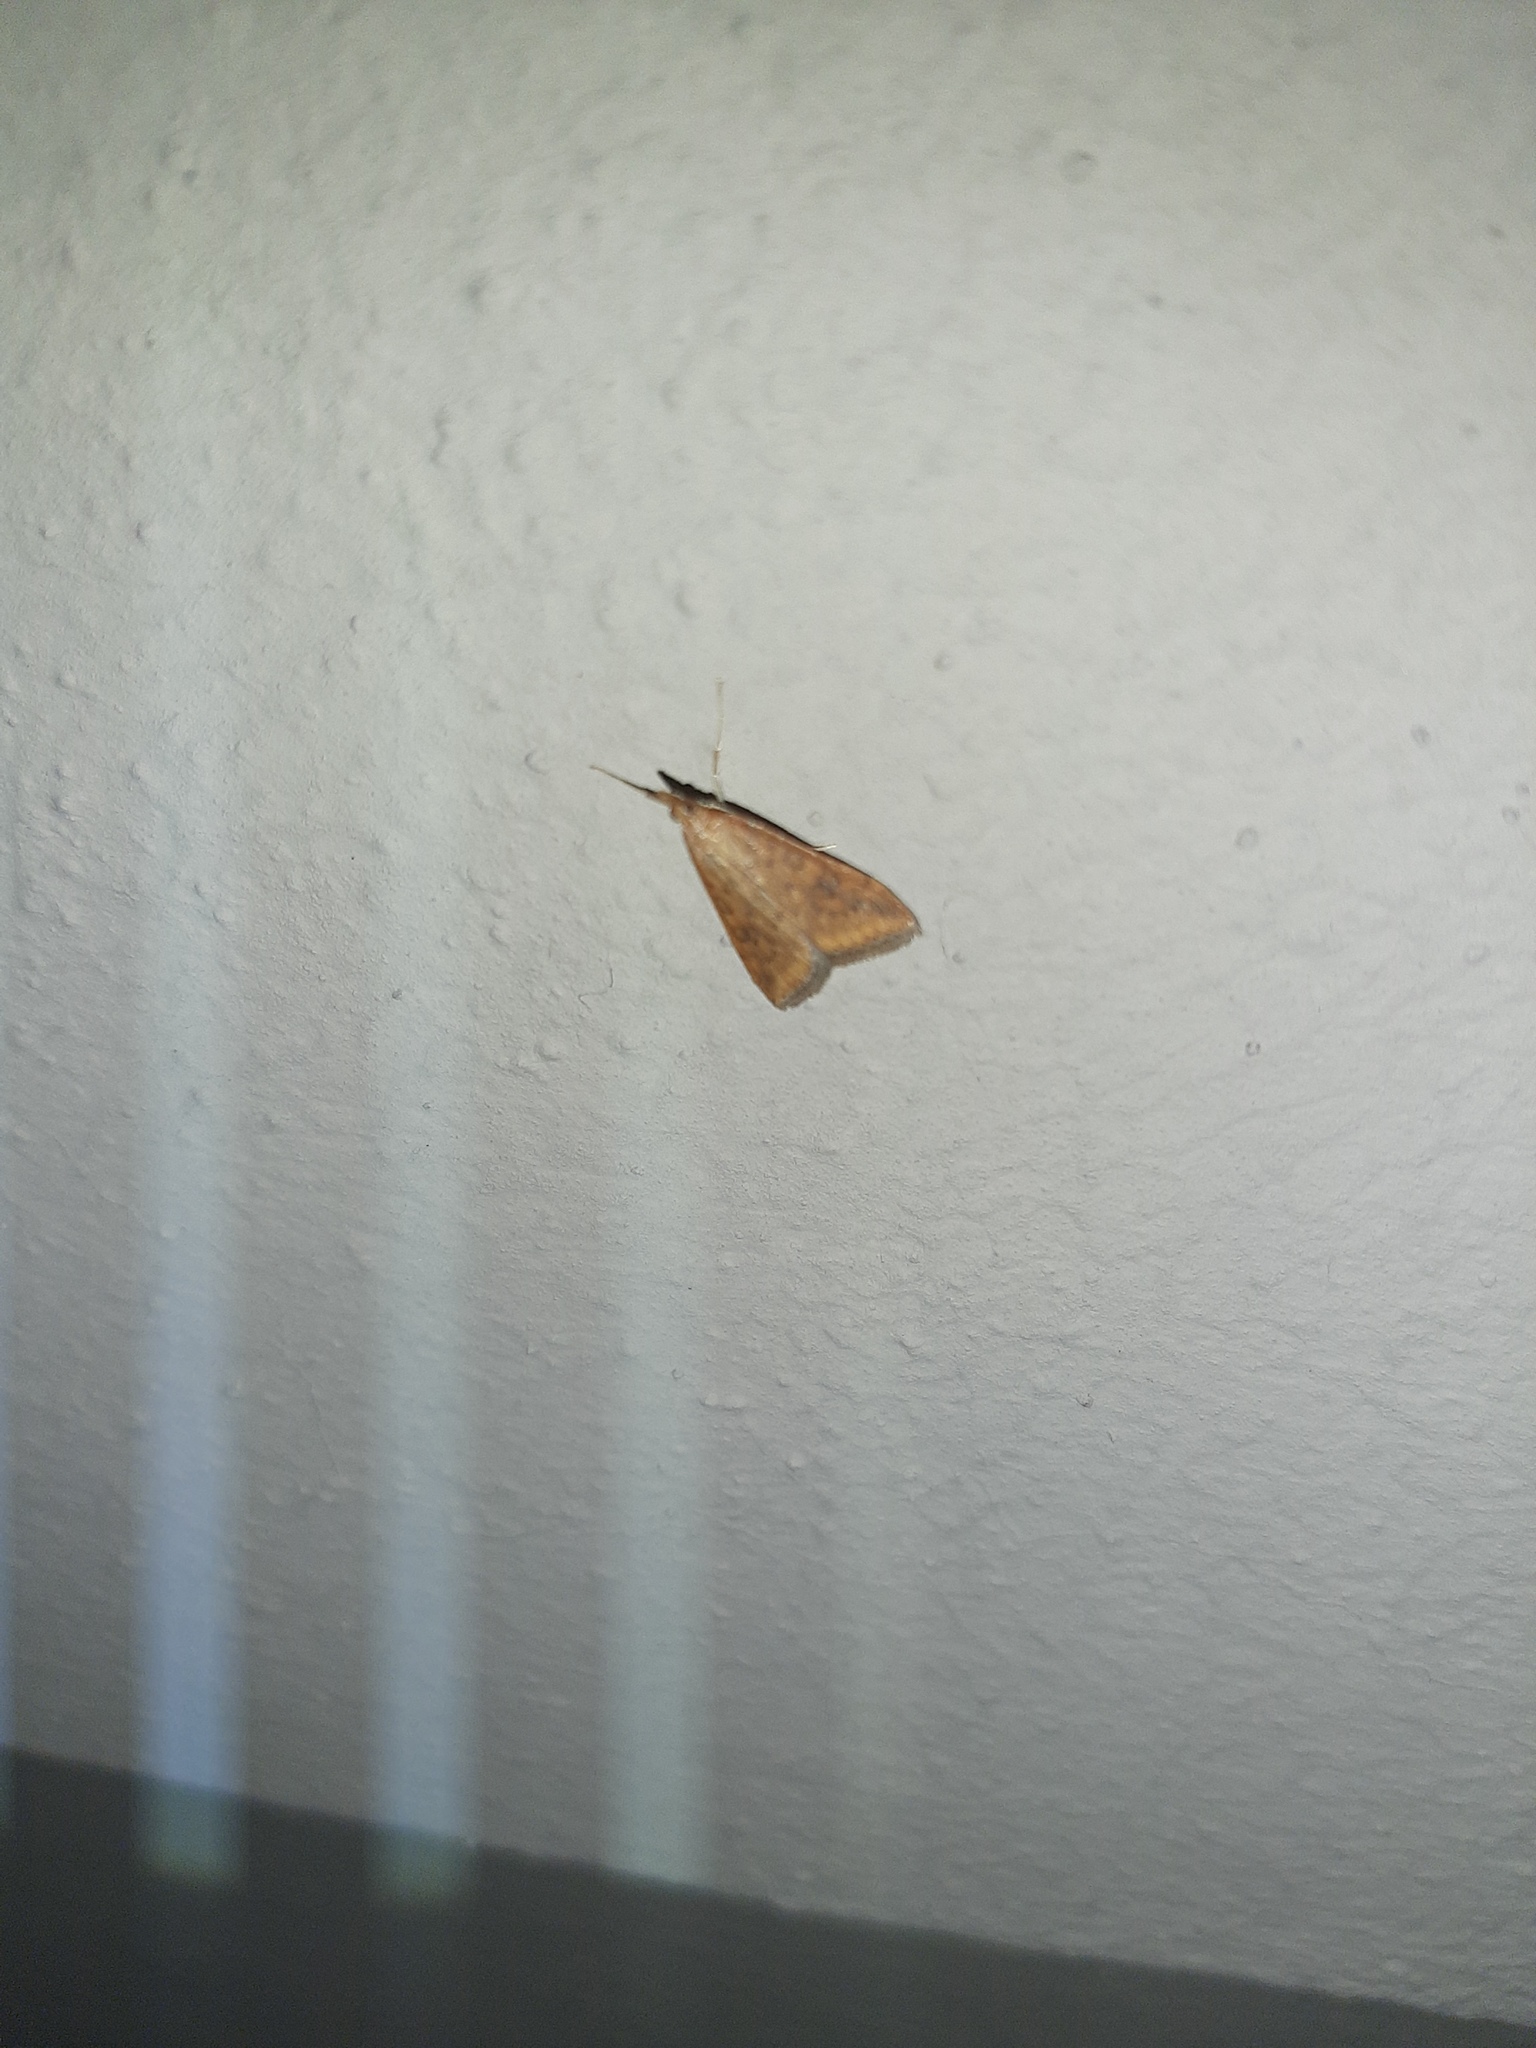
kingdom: Animalia
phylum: Arthropoda
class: Insecta
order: Lepidoptera
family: Crambidae
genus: Udea
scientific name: Udea ferrugalis
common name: Rusty dot
